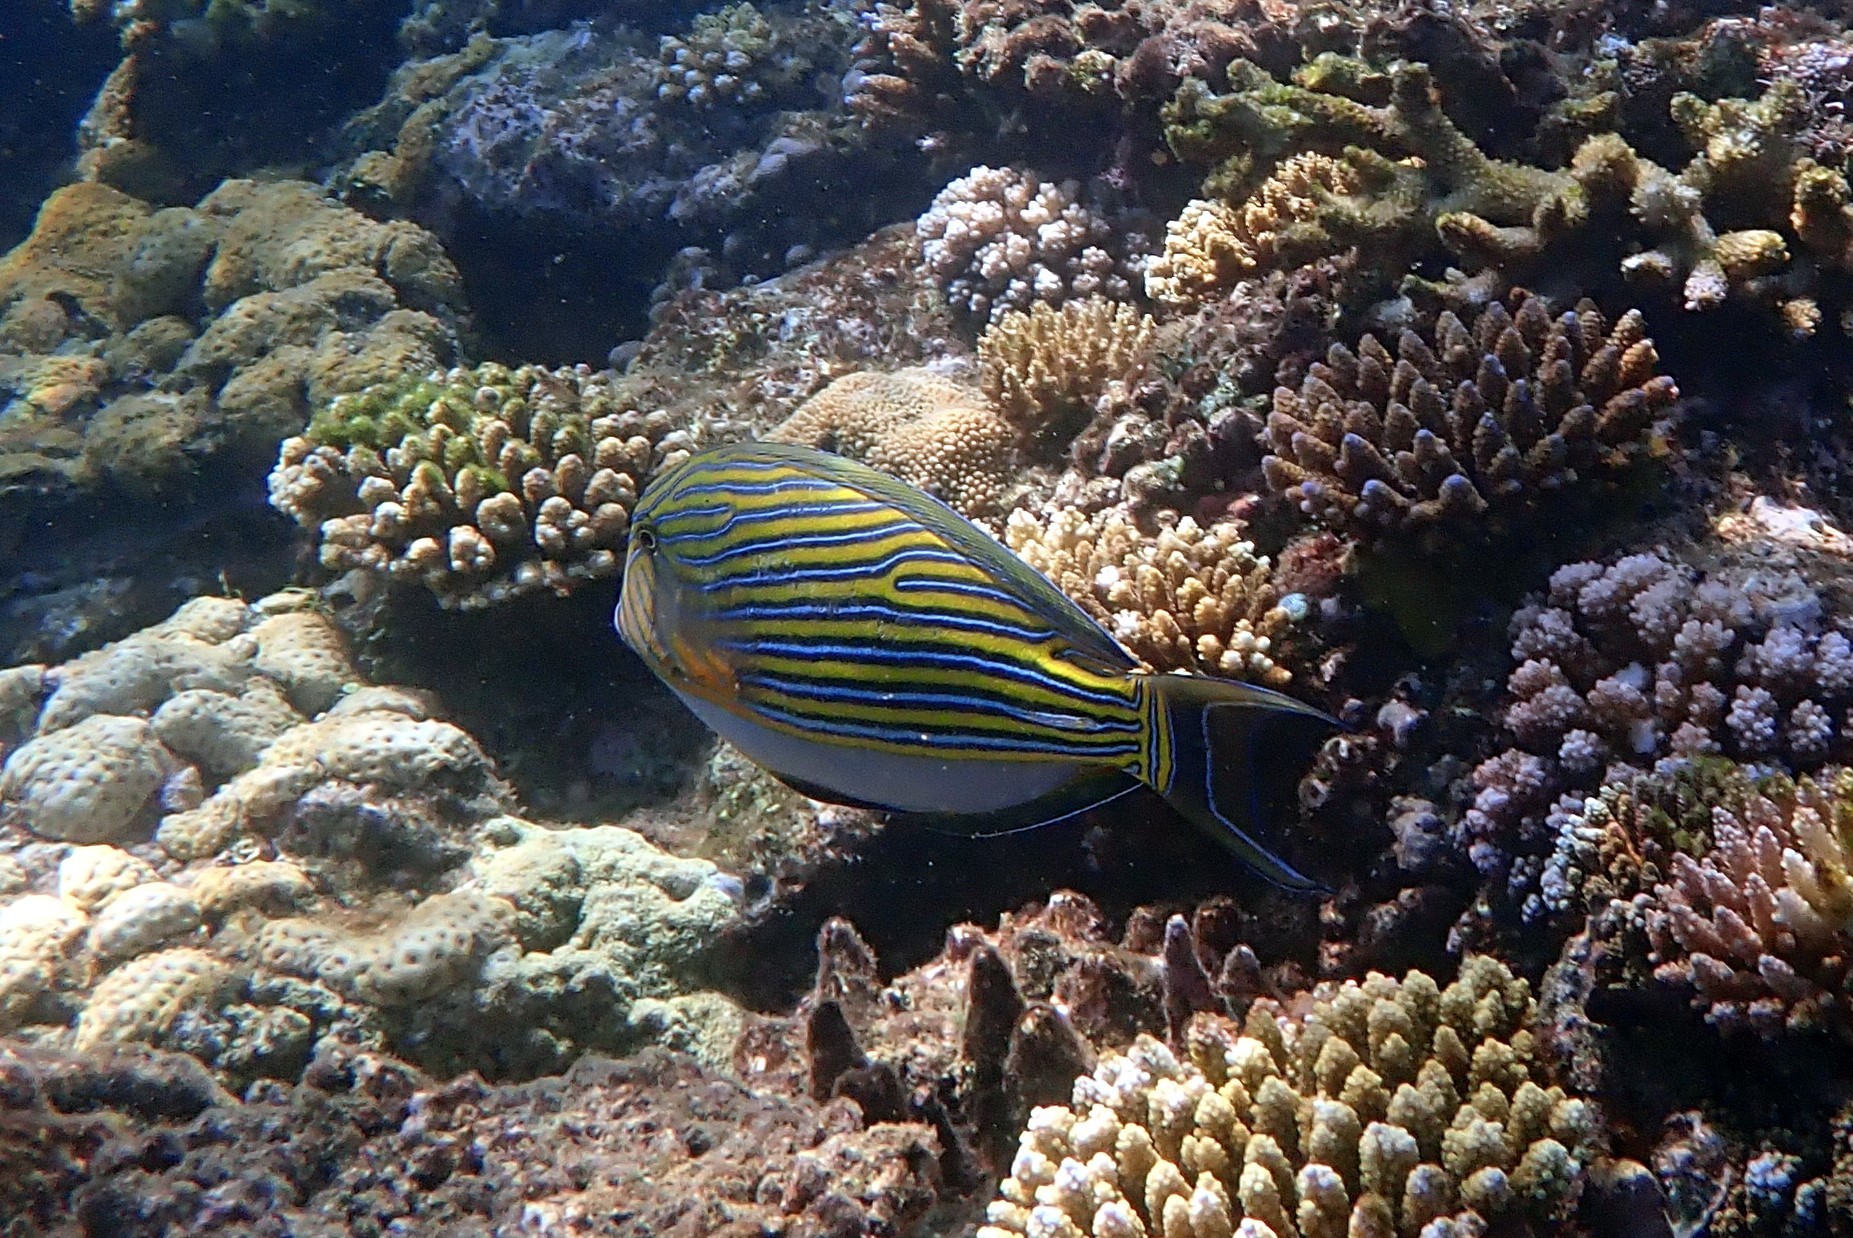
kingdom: Animalia
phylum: Chordata
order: Perciformes
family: Acanthuridae
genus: Acanthurus
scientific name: Acanthurus lineatus
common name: Striped surgeonfish
